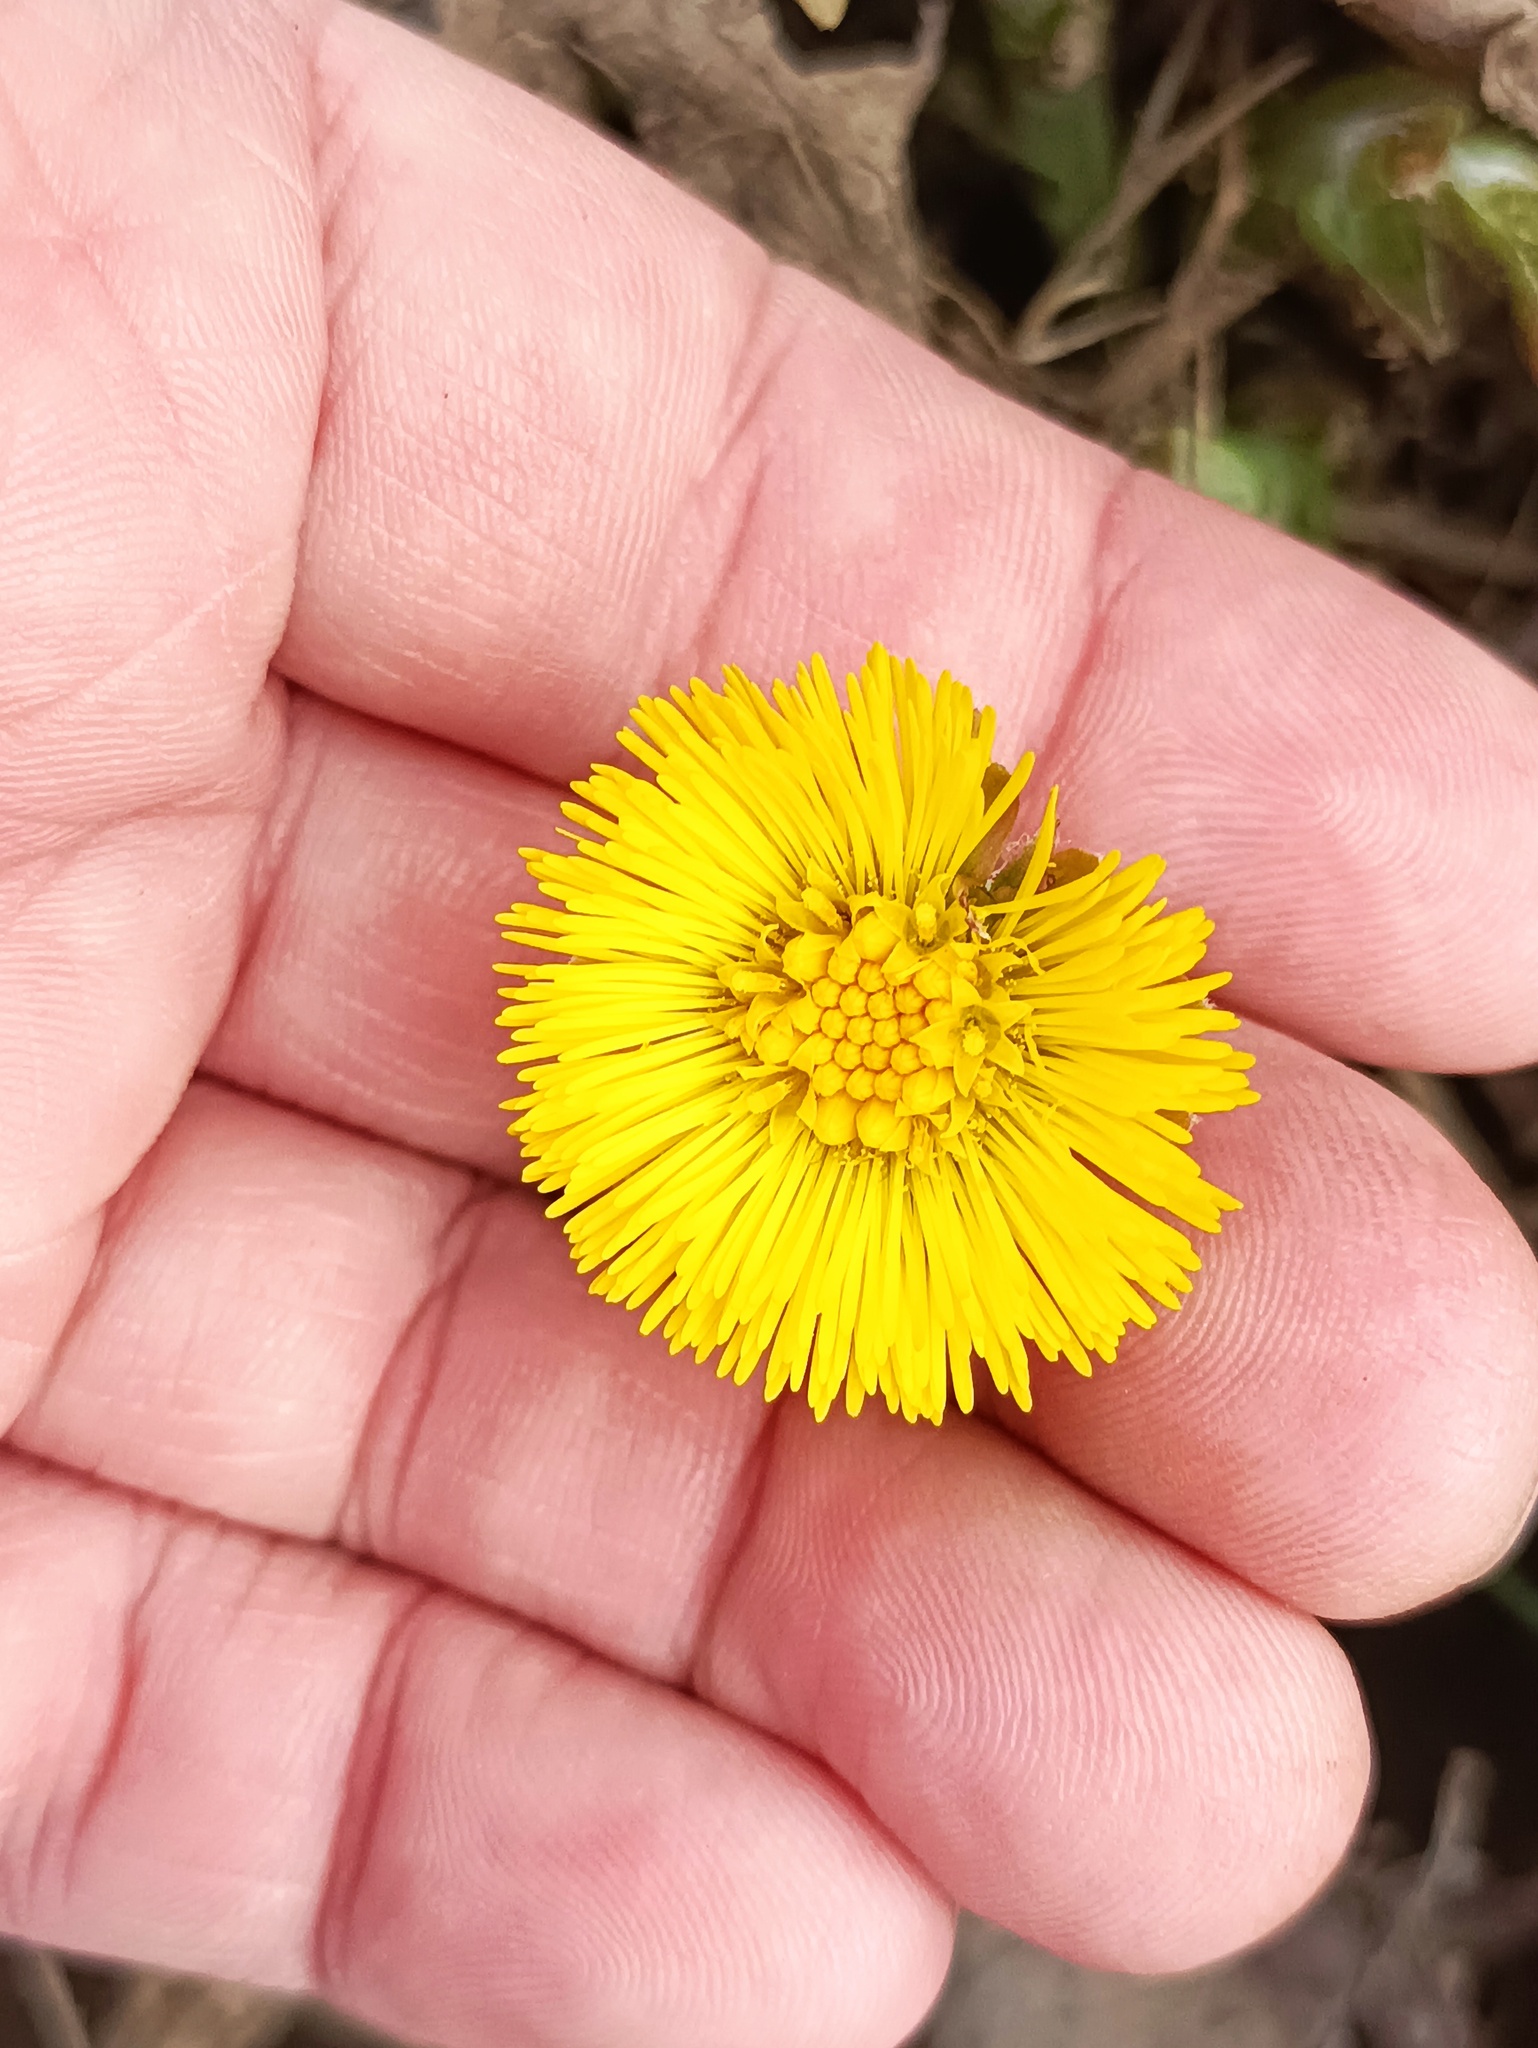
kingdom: Plantae
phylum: Tracheophyta
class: Magnoliopsida
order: Asterales
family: Asteraceae
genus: Tussilago
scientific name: Tussilago farfara
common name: Coltsfoot
